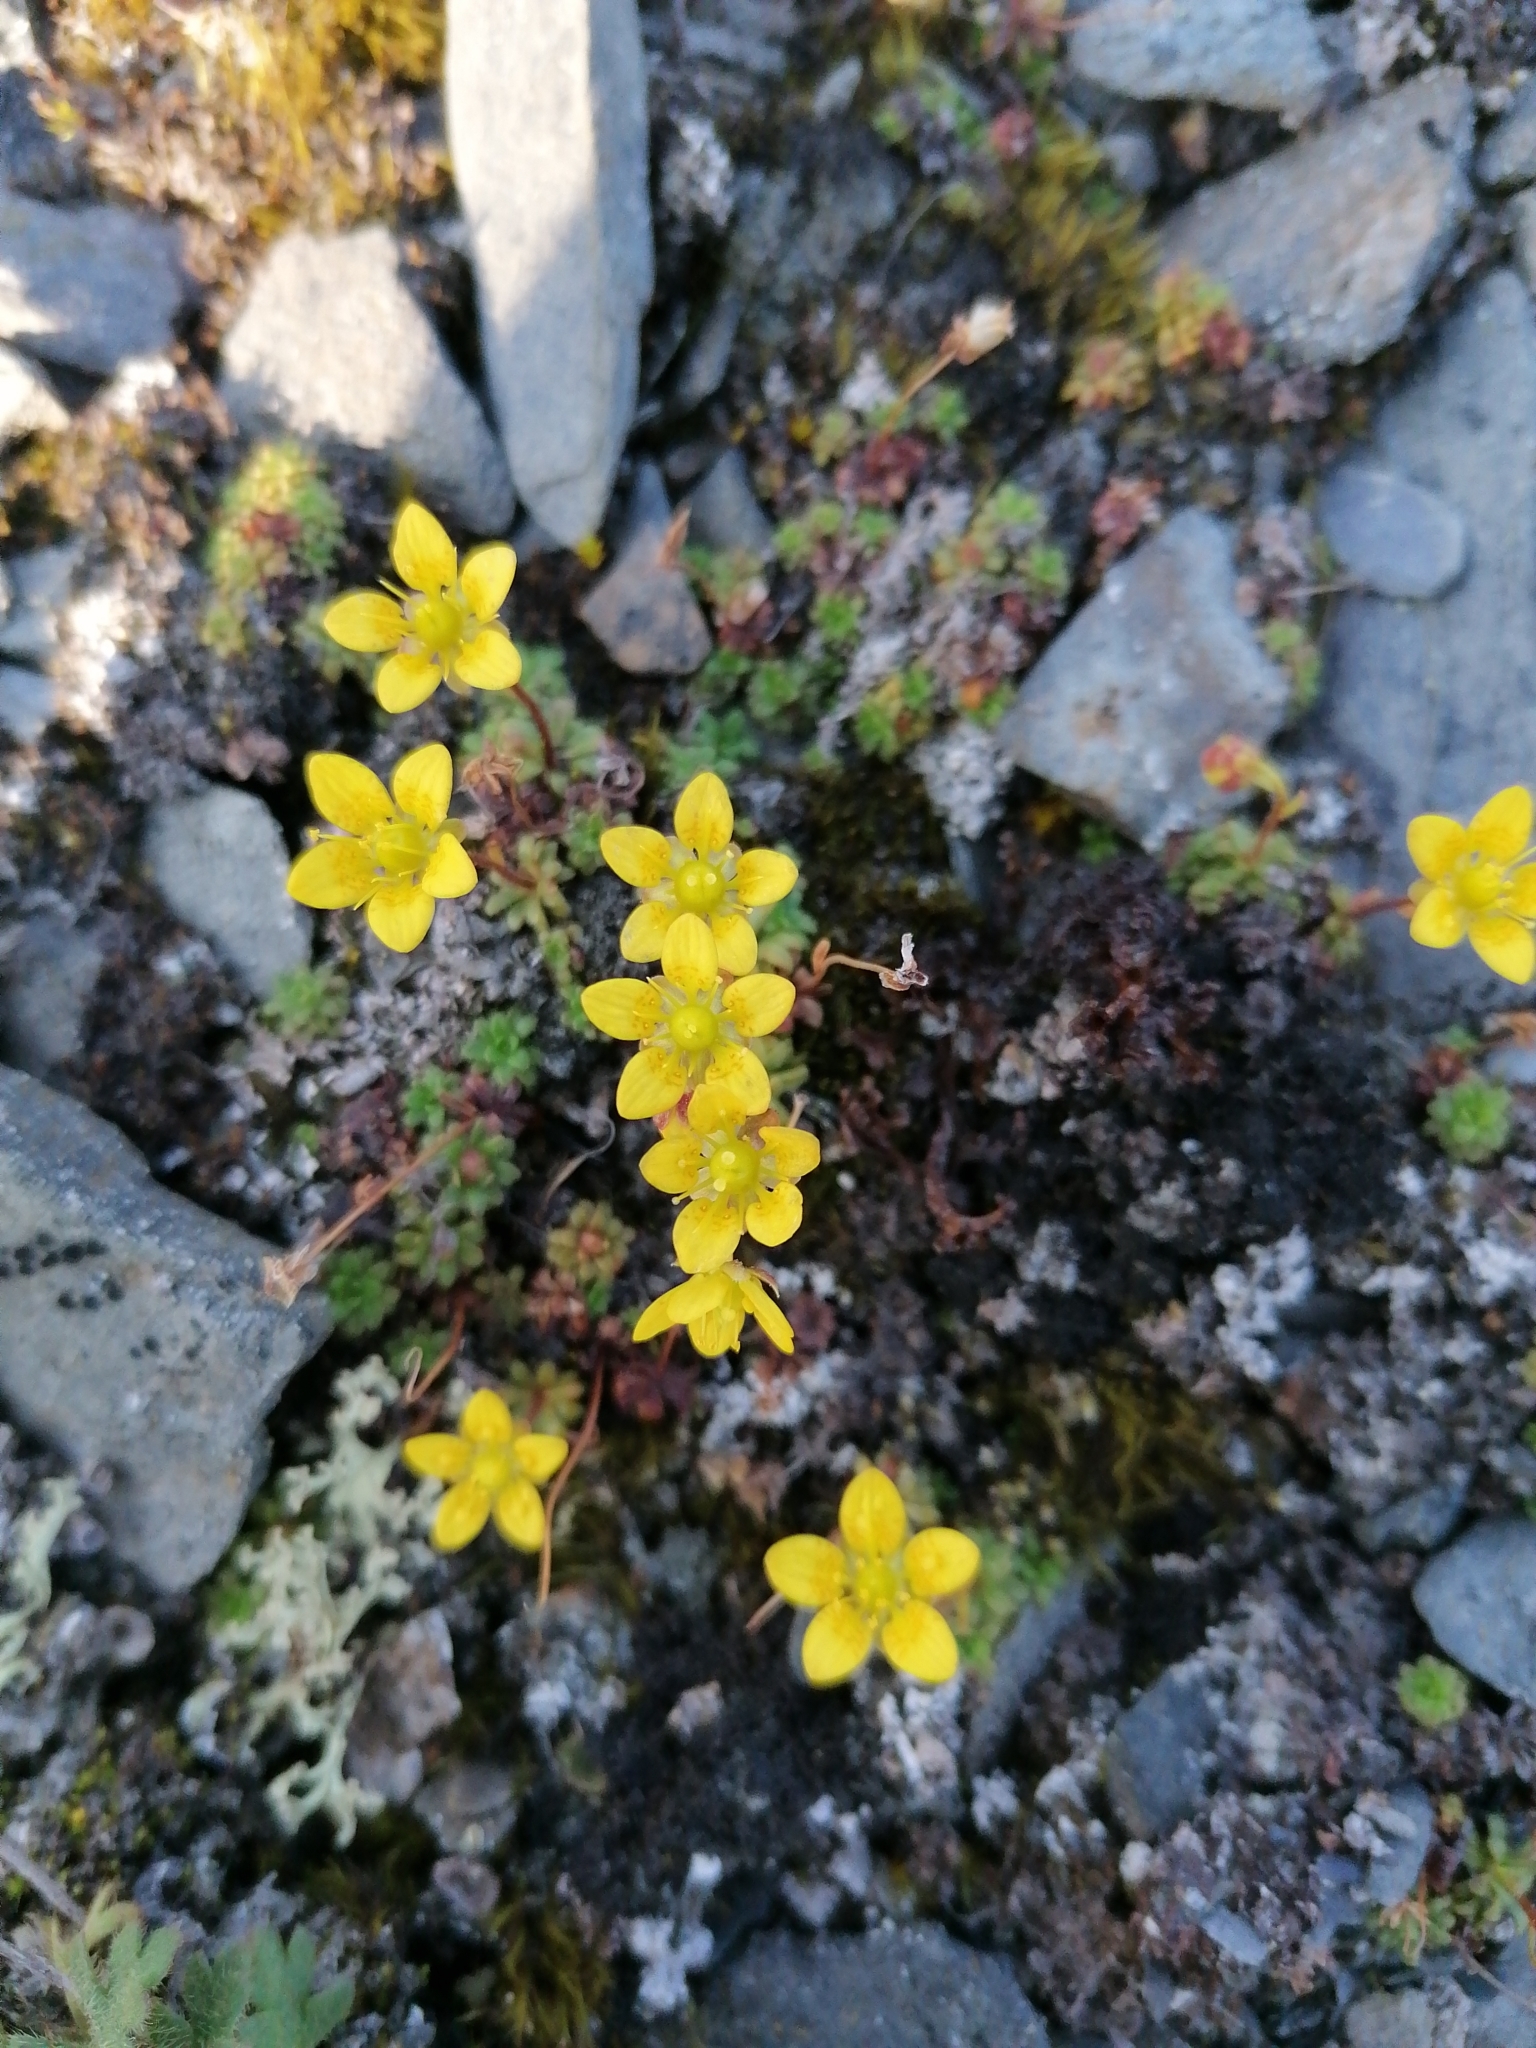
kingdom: Plantae
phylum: Tracheophyta
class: Magnoliopsida
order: Saxifragales
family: Saxifragaceae
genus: Saxifraga
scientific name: Saxifraga serpyllifolia
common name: Thyme-leaved saxifrage
